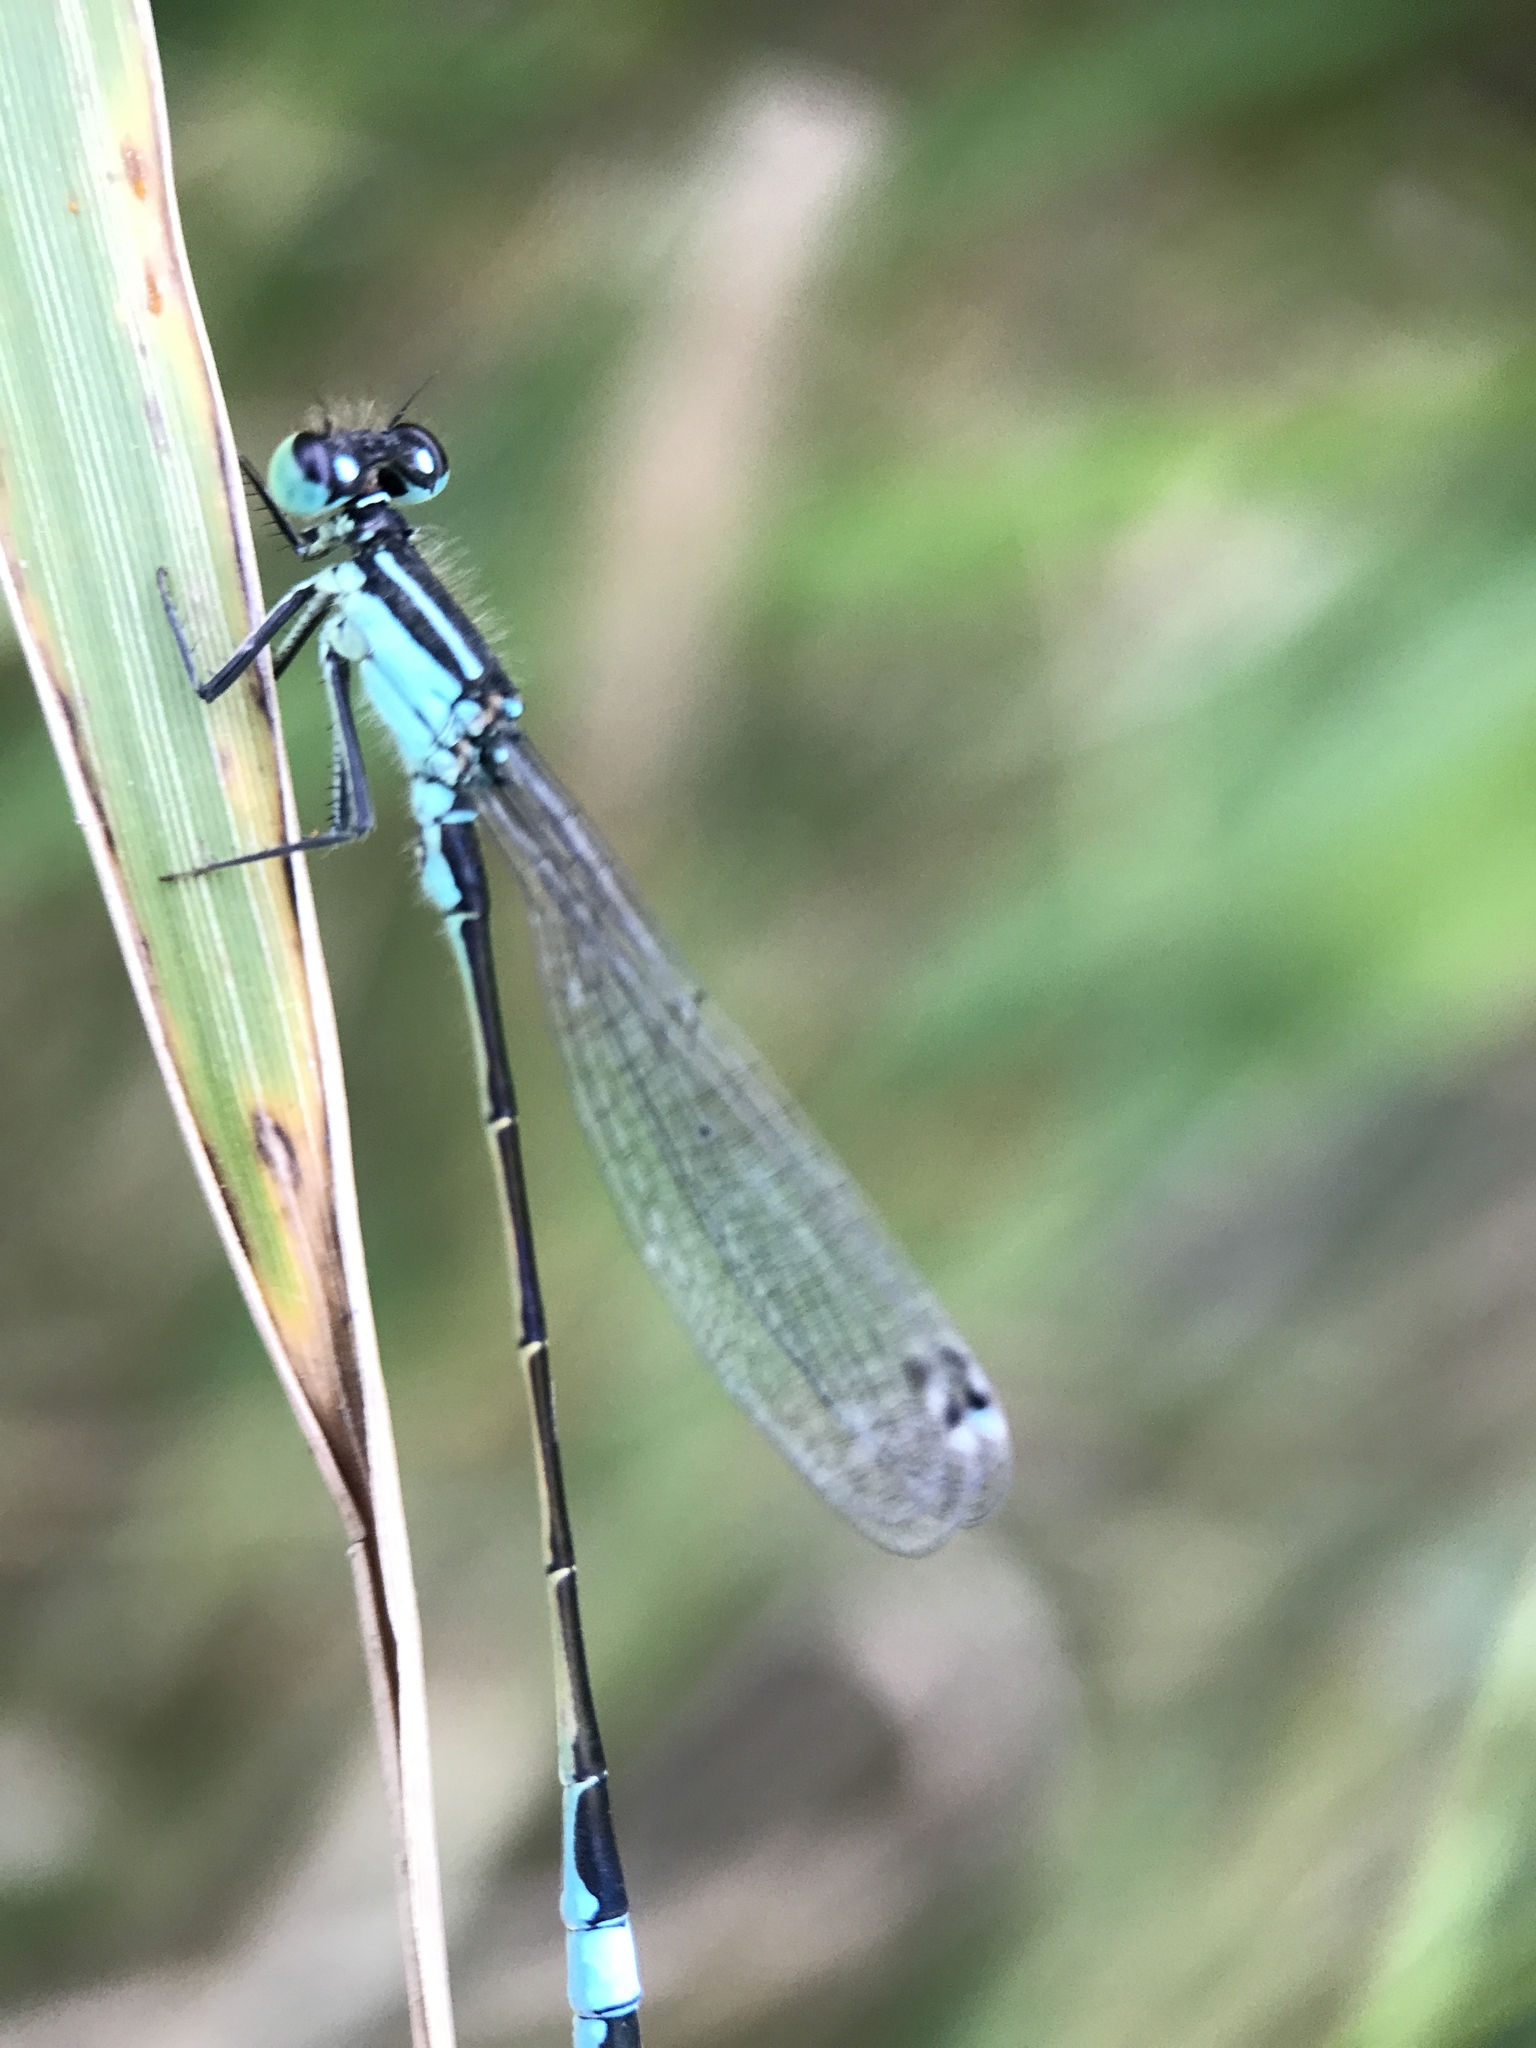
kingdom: Animalia
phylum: Arthropoda
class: Insecta
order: Odonata
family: Coenagrionidae
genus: Ischnura
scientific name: Ischnura elegans
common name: Blue-tailed damselfly
